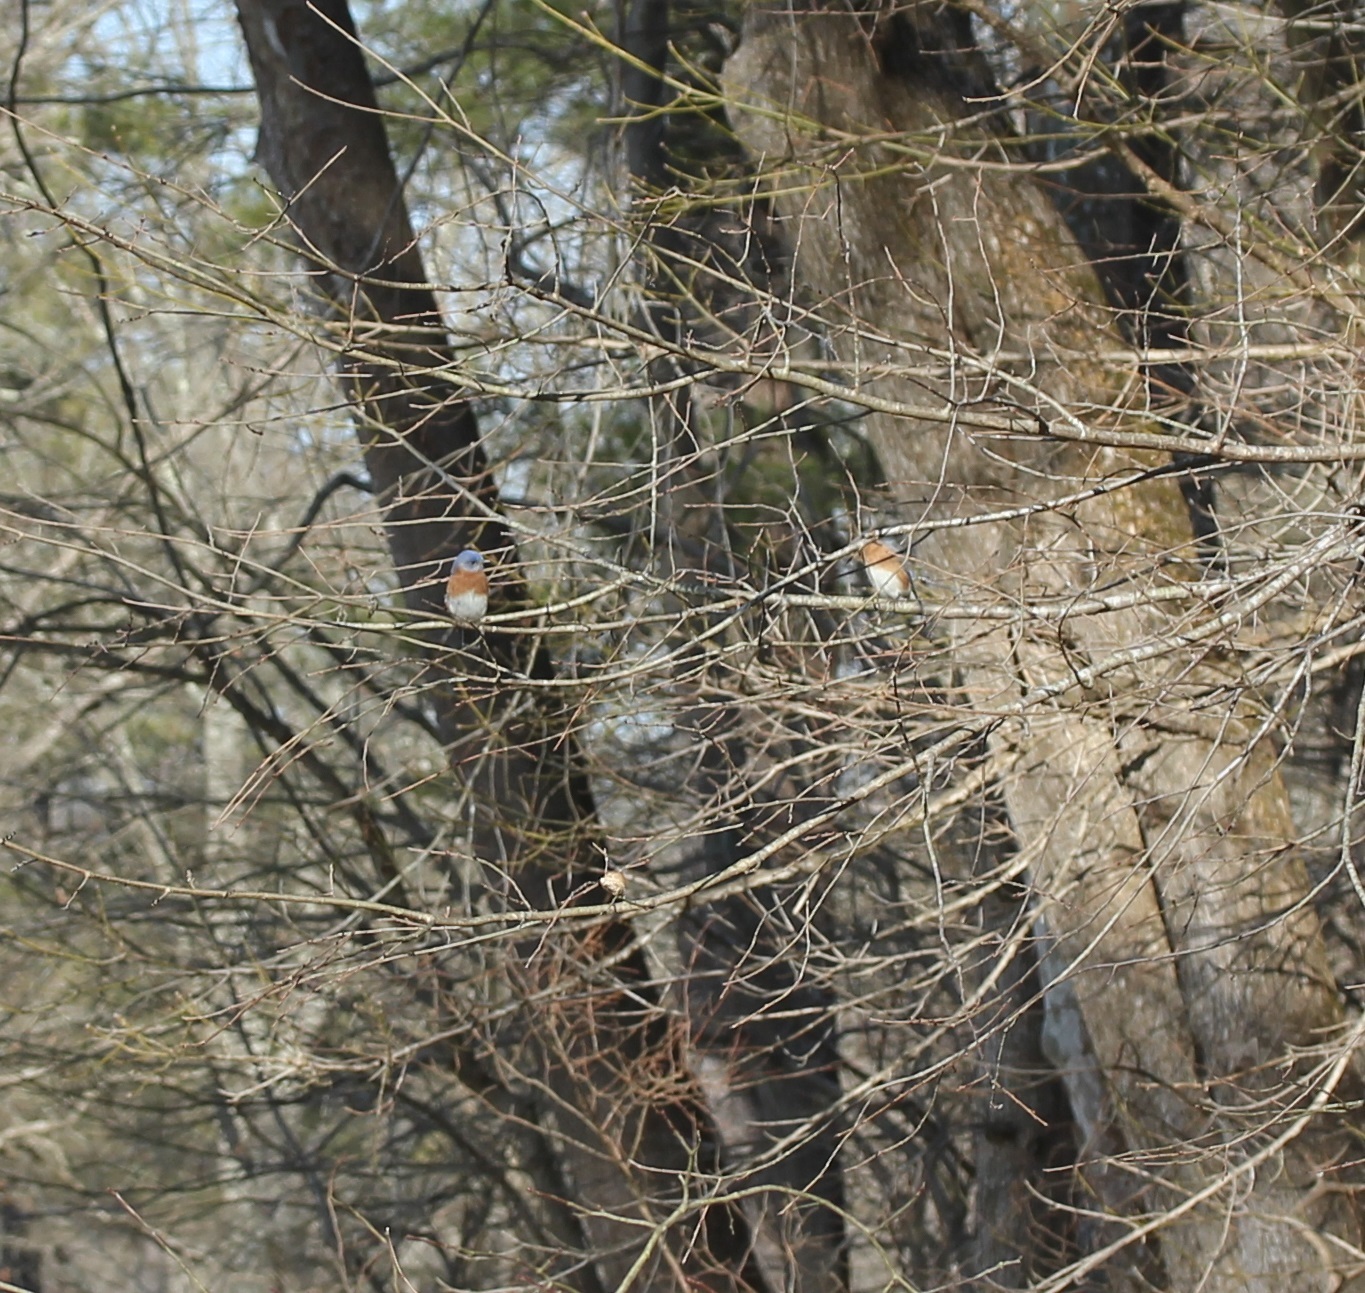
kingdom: Animalia
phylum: Chordata
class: Aves
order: Passeriformes
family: Turdidae
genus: Sialia
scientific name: Sialia sialis
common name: Eastern bluebird
